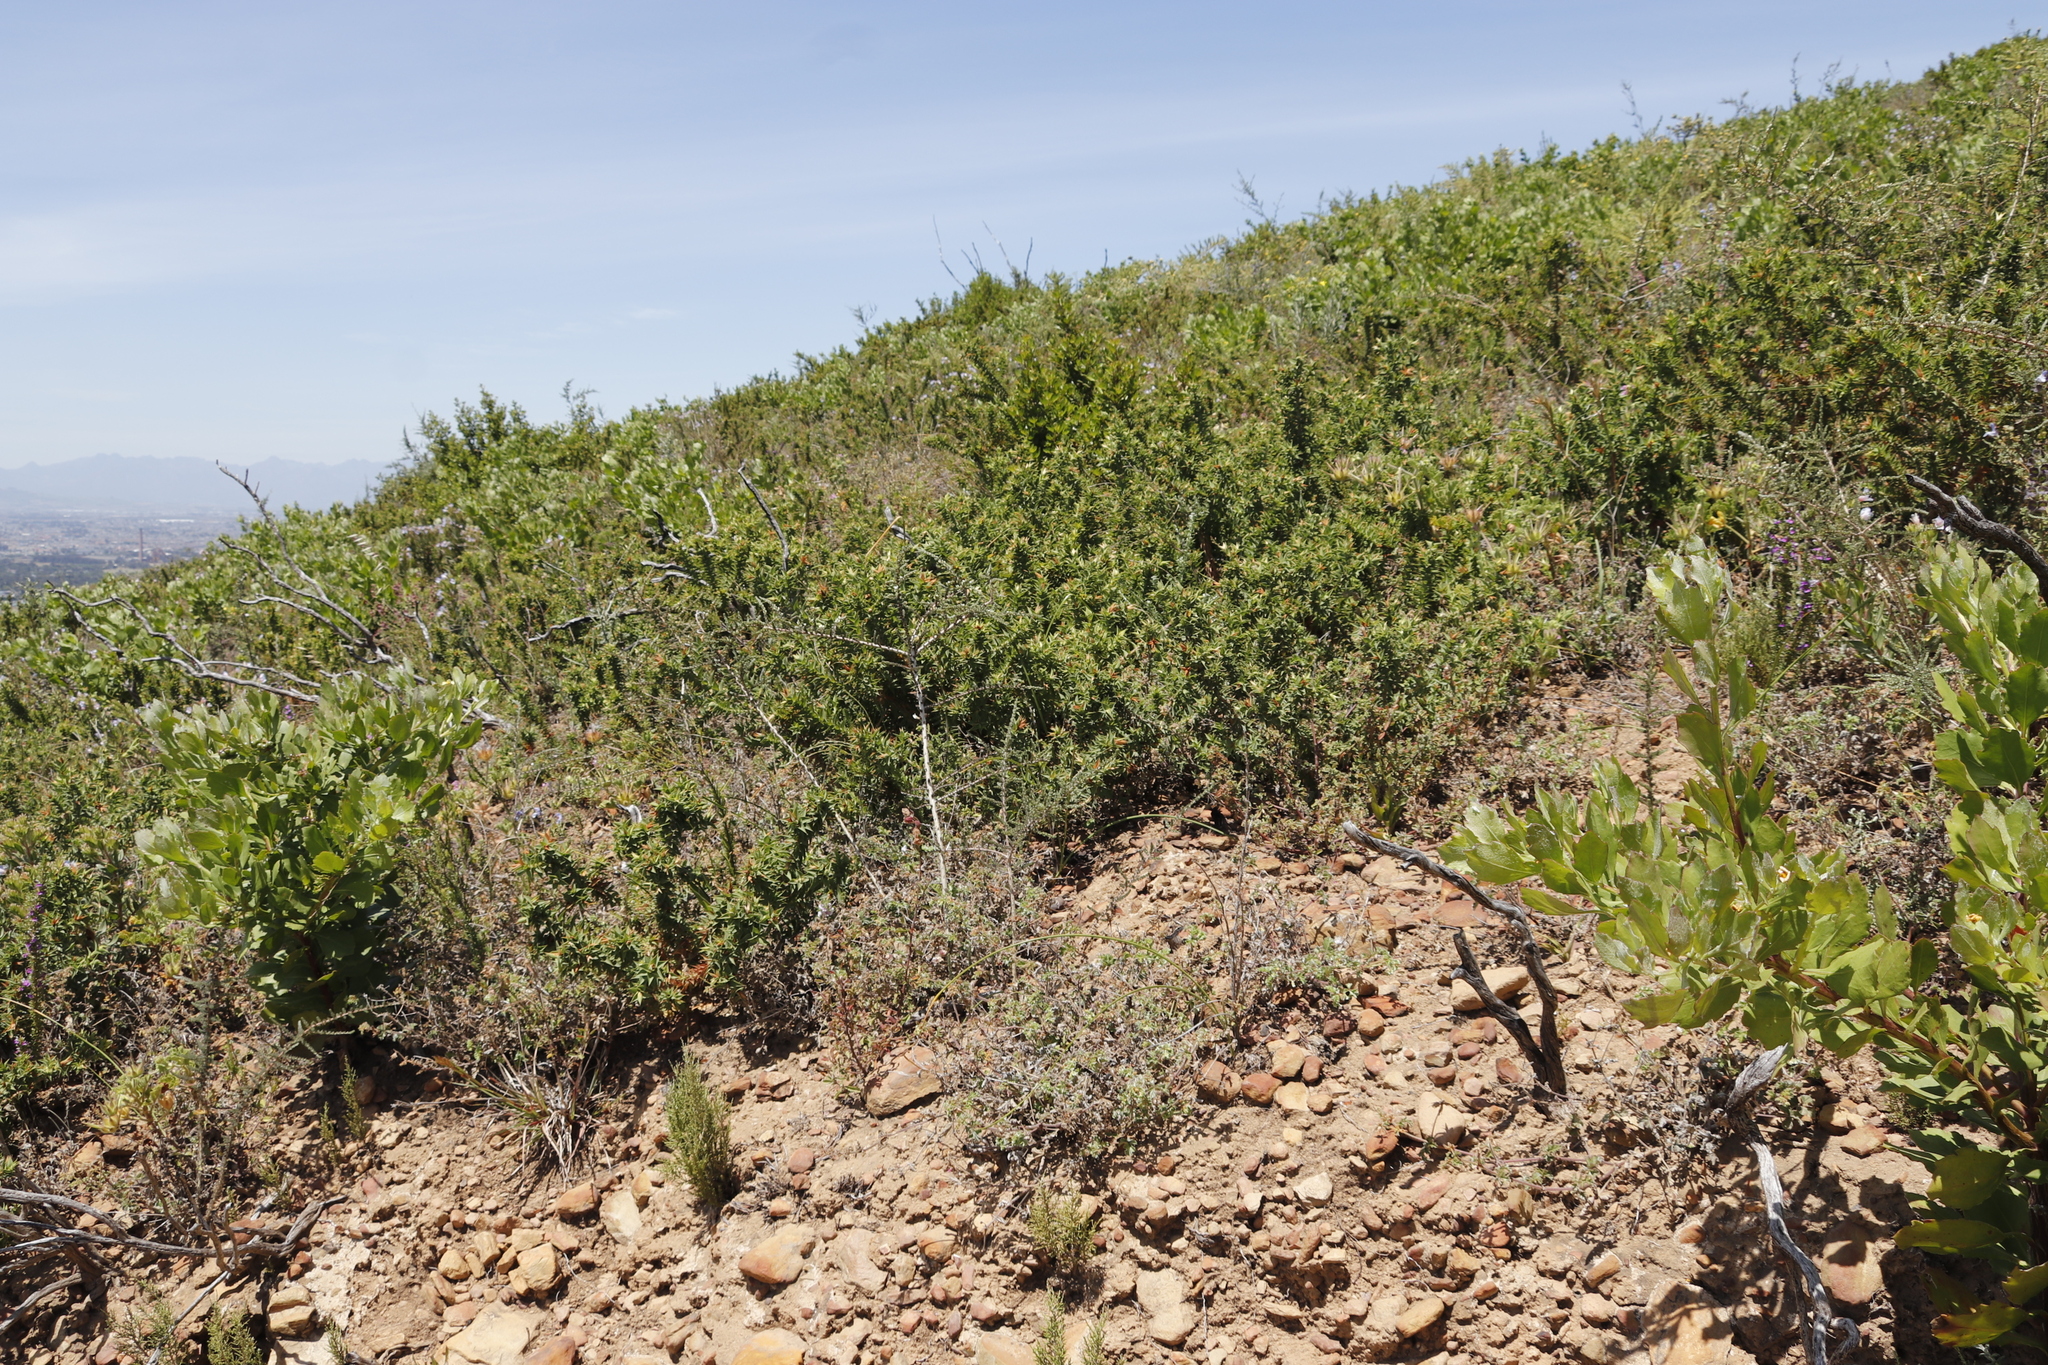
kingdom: Plantae
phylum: Tracheophyta
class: Magnoliopsida
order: Fabales
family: Fabaceae
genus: Aspalathus
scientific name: Aspalathus cordata
